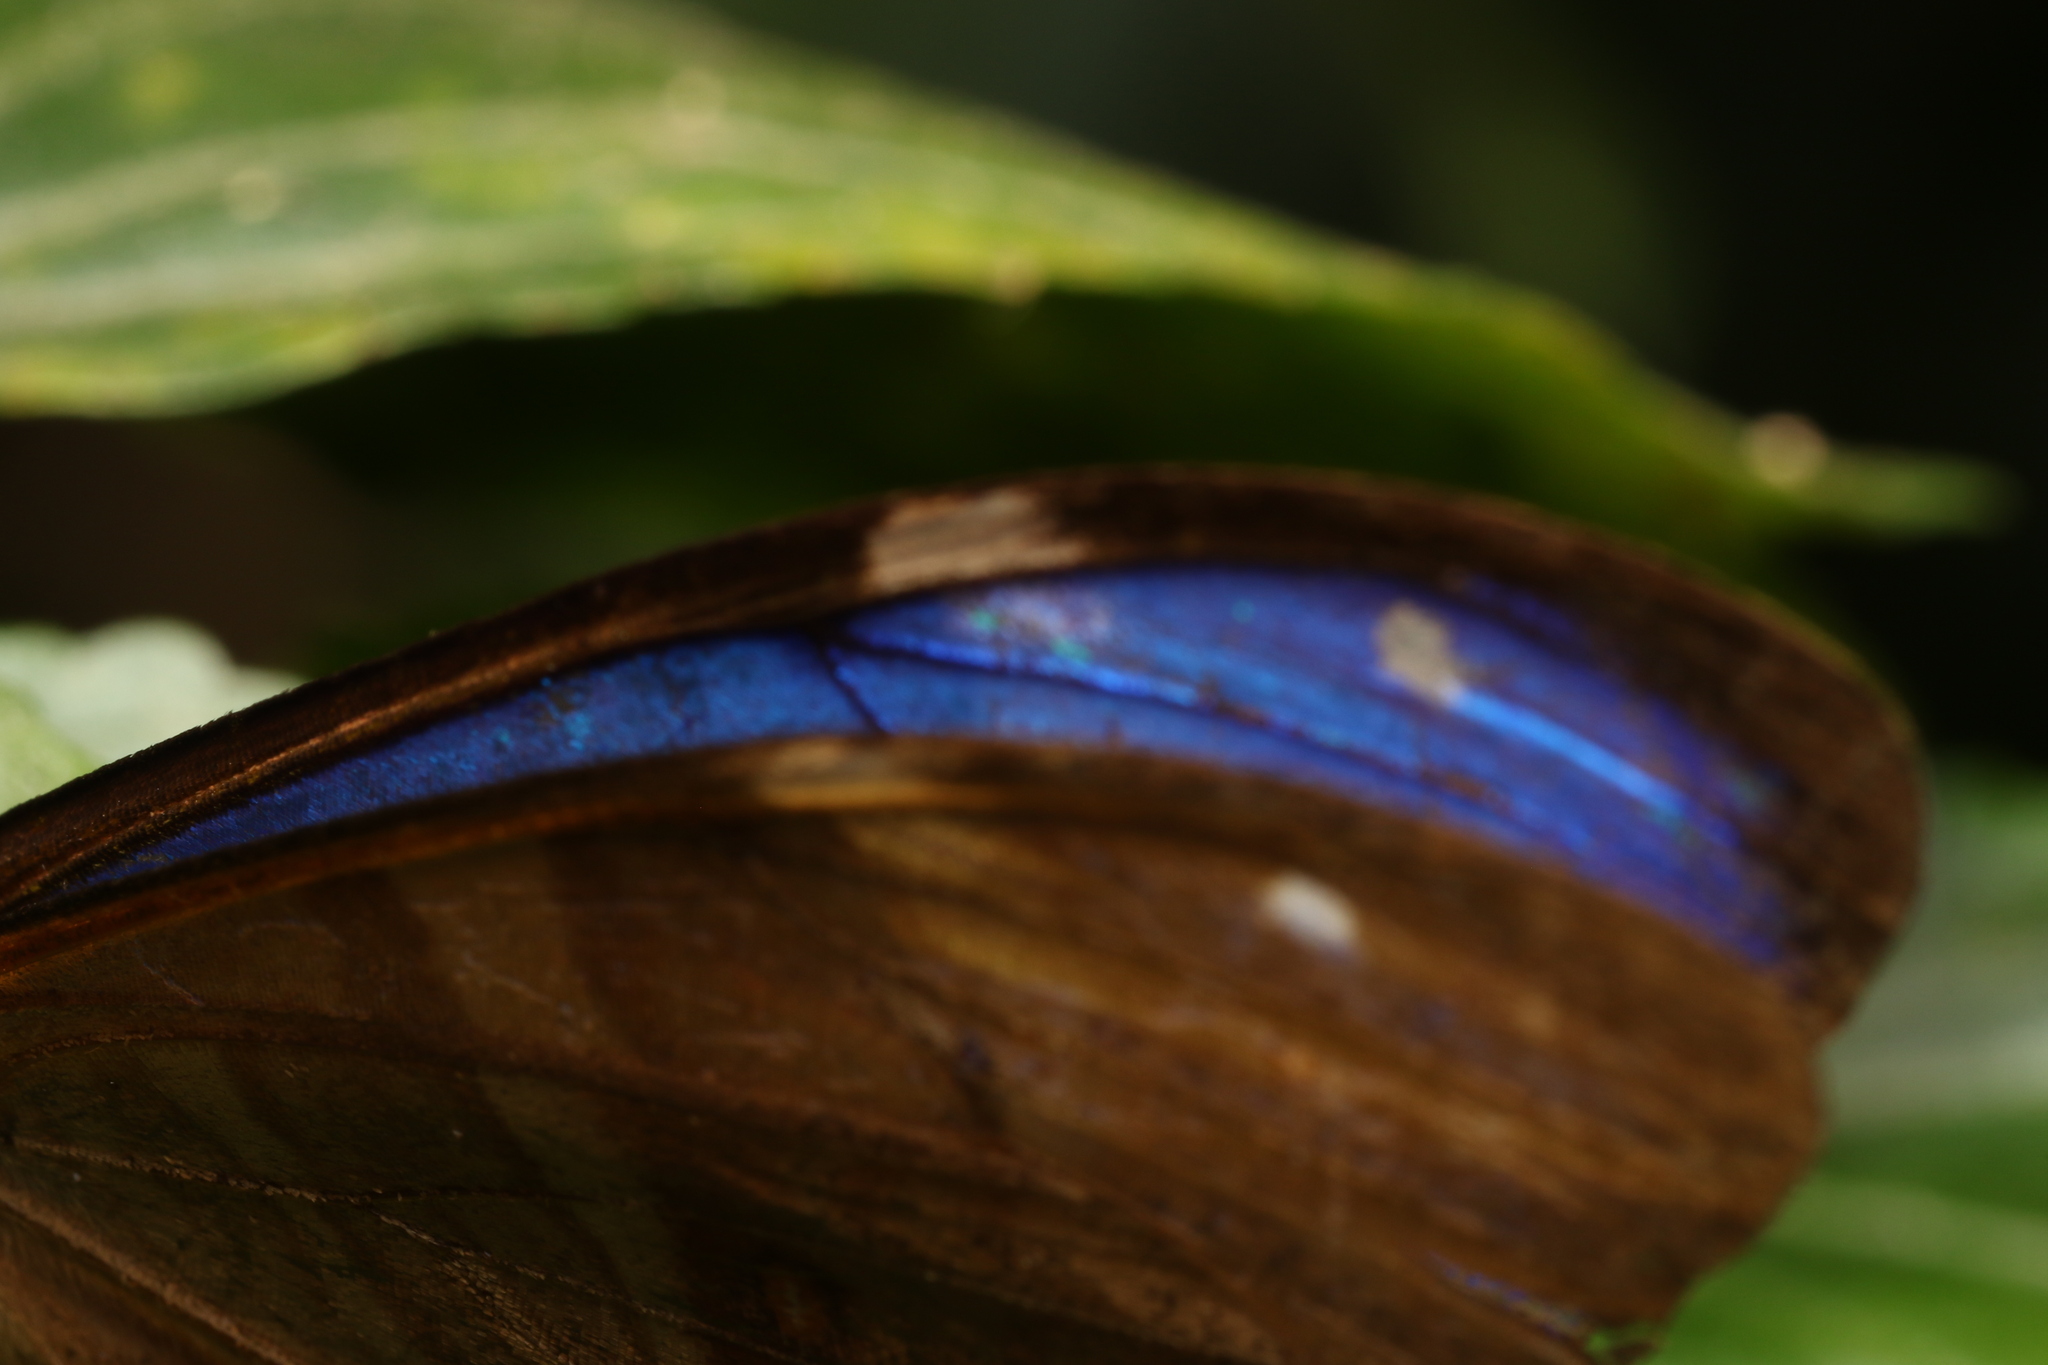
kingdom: Animalia
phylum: Arthropoda
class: Insecta
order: Lepidoptera
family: Nymphalidae
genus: Morpho
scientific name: Morpho aega
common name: Aega morpho
